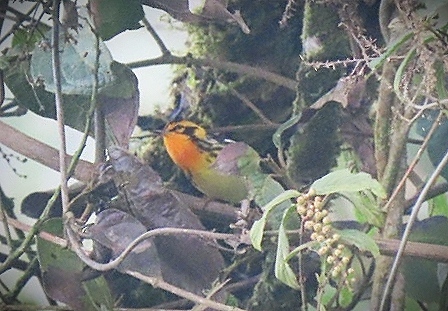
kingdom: Animalia
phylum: Chordata
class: Aves
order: Passeriformes
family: Parulidae
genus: Setophaga
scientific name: Setophaga fusca
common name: Blackburnian warbler
